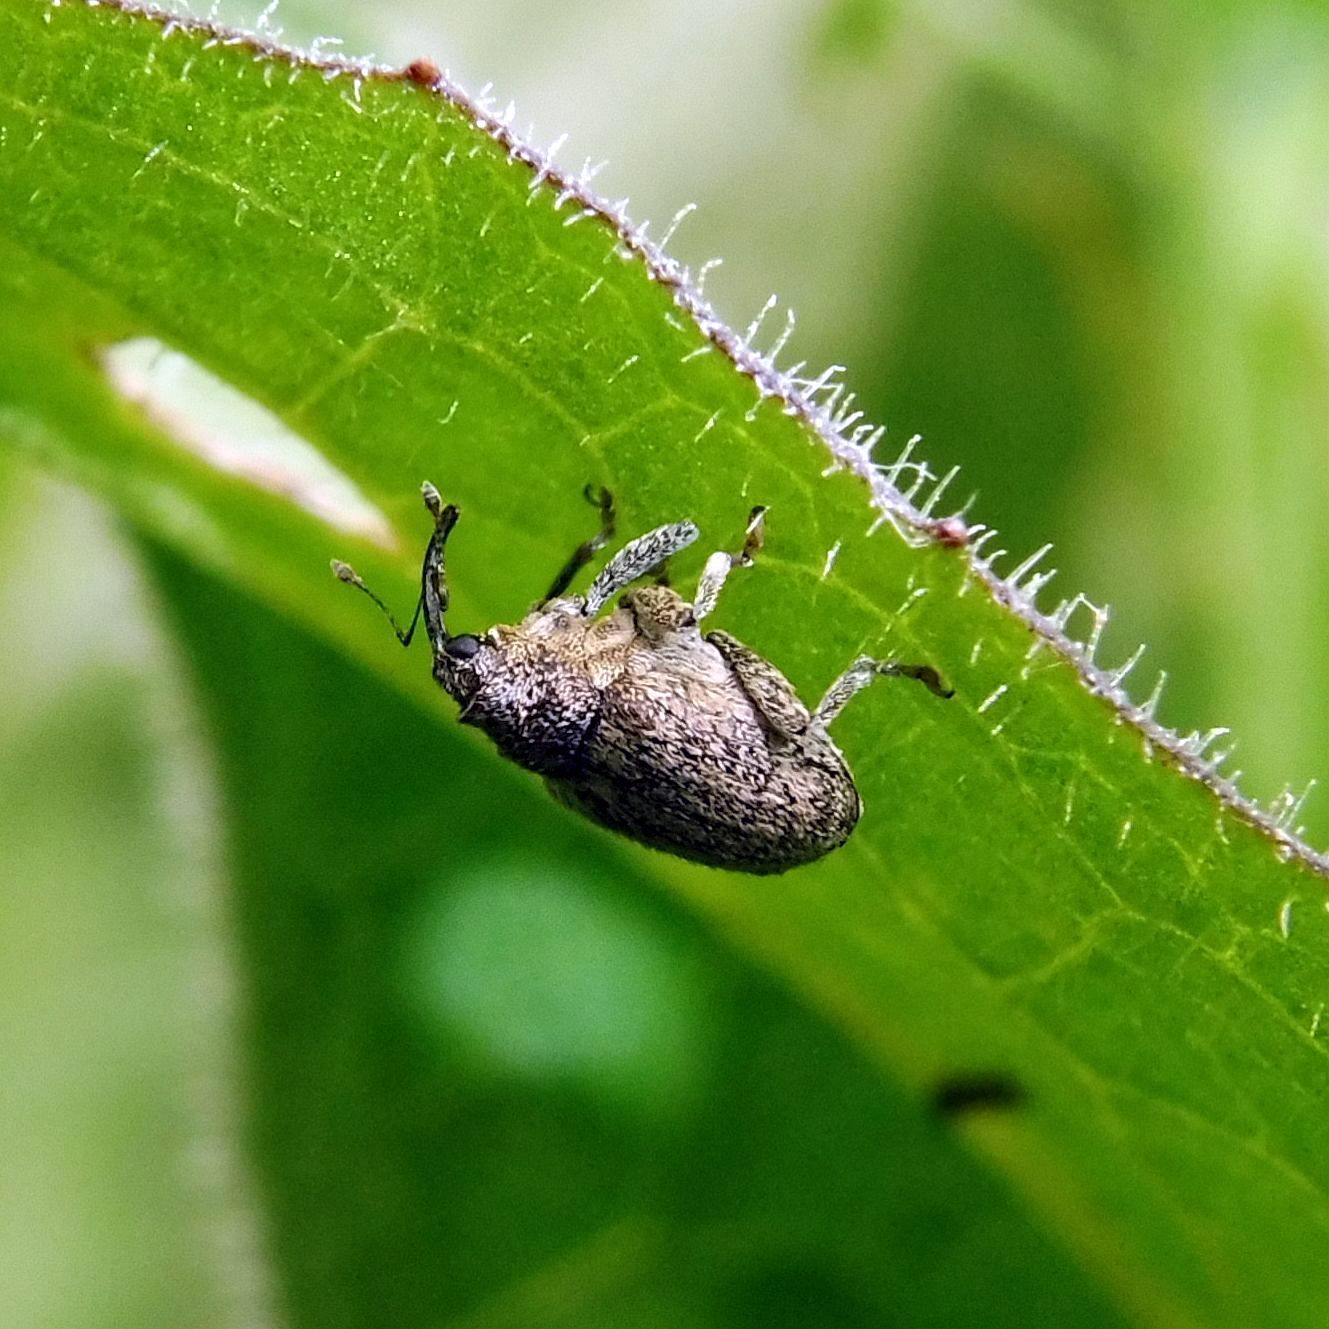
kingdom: Animalia
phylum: Arthropoda
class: Insecta
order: Coleoptera
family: Curculionidae
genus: Ceutorhynchus
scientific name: Ceutorhynchus pallidactylus
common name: Cabbage stem weavil
